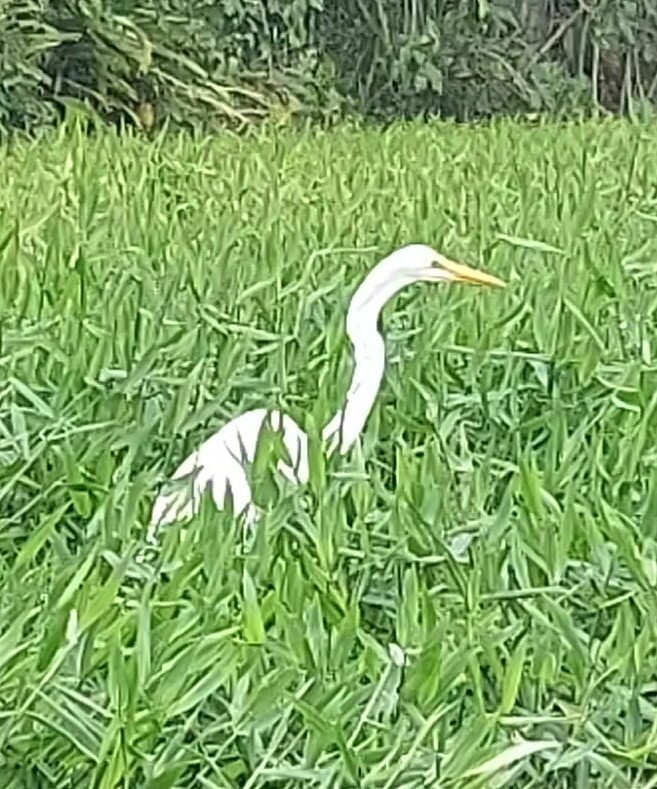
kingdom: Animalia
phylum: Chordata
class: Aves
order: Pelecaniformes
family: Ardeidae
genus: Ardea
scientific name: Ardea alba
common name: Great egret
